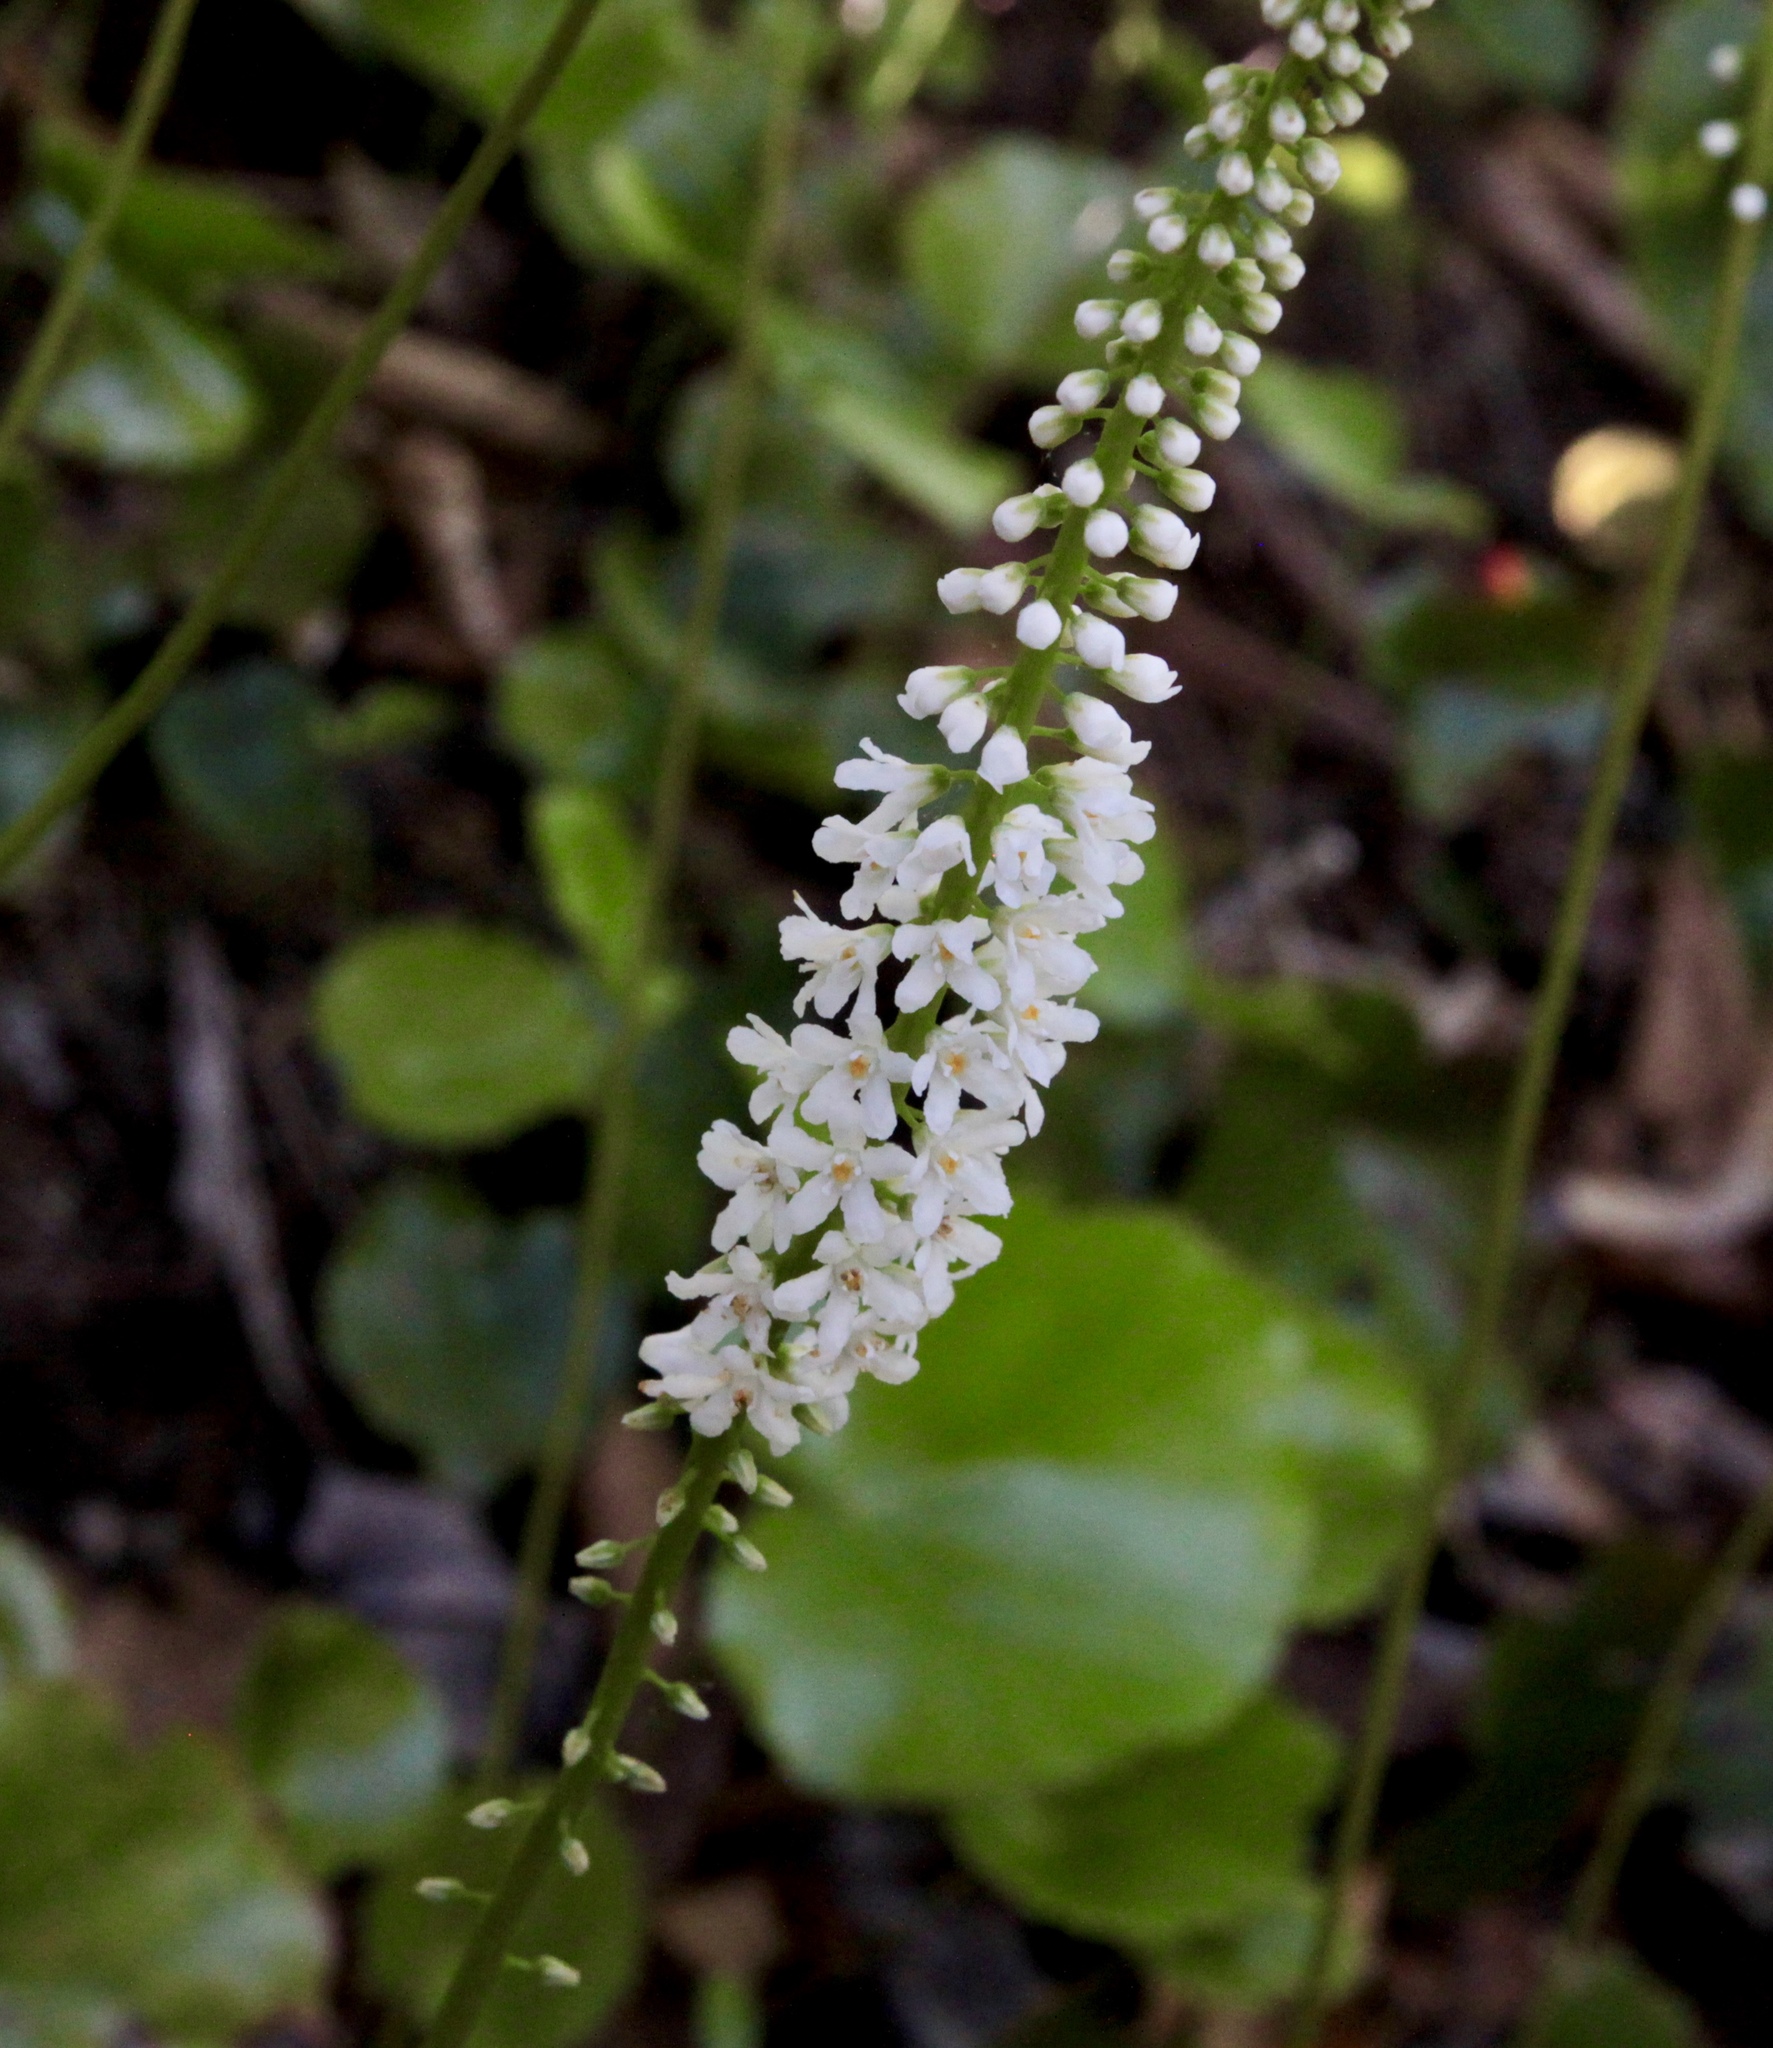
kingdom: Plantae
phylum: Tracheophyta
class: Magnoliopsida
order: Ericales
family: Diapensiaceae
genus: Galax
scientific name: Galax urceolata
